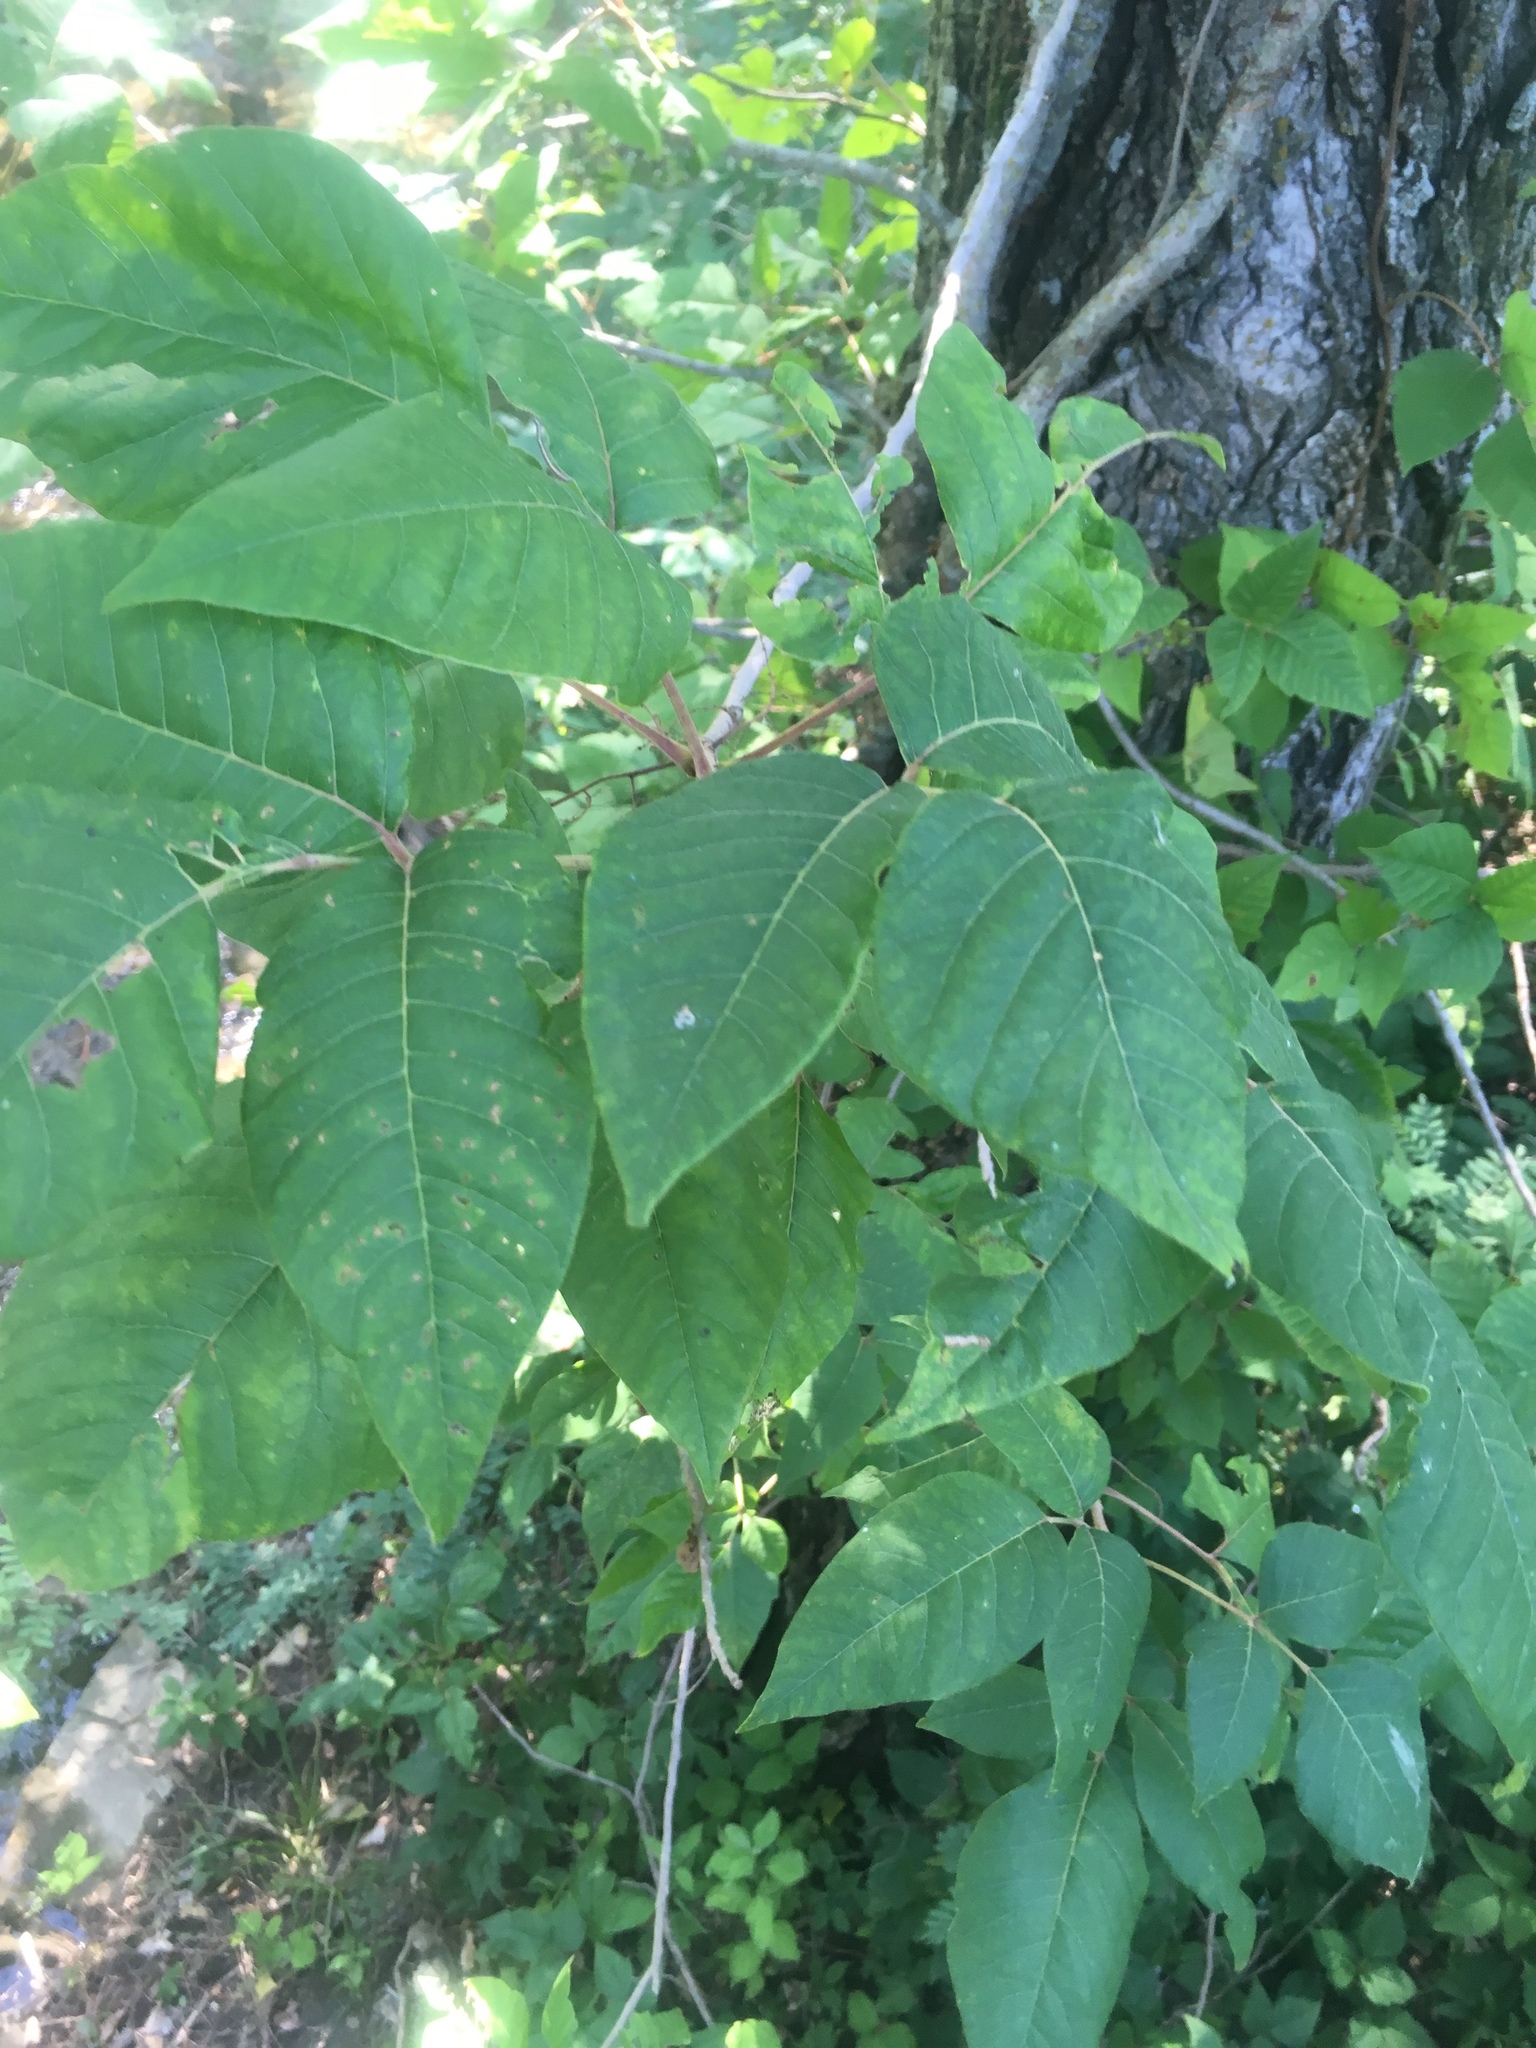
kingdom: Plantae
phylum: Tracheophyta
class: Magnoliopsida
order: Sapindales
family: Anacardiaceae
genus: Toxicodendron
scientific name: Toxicodendron radicans
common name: Poison ivy
